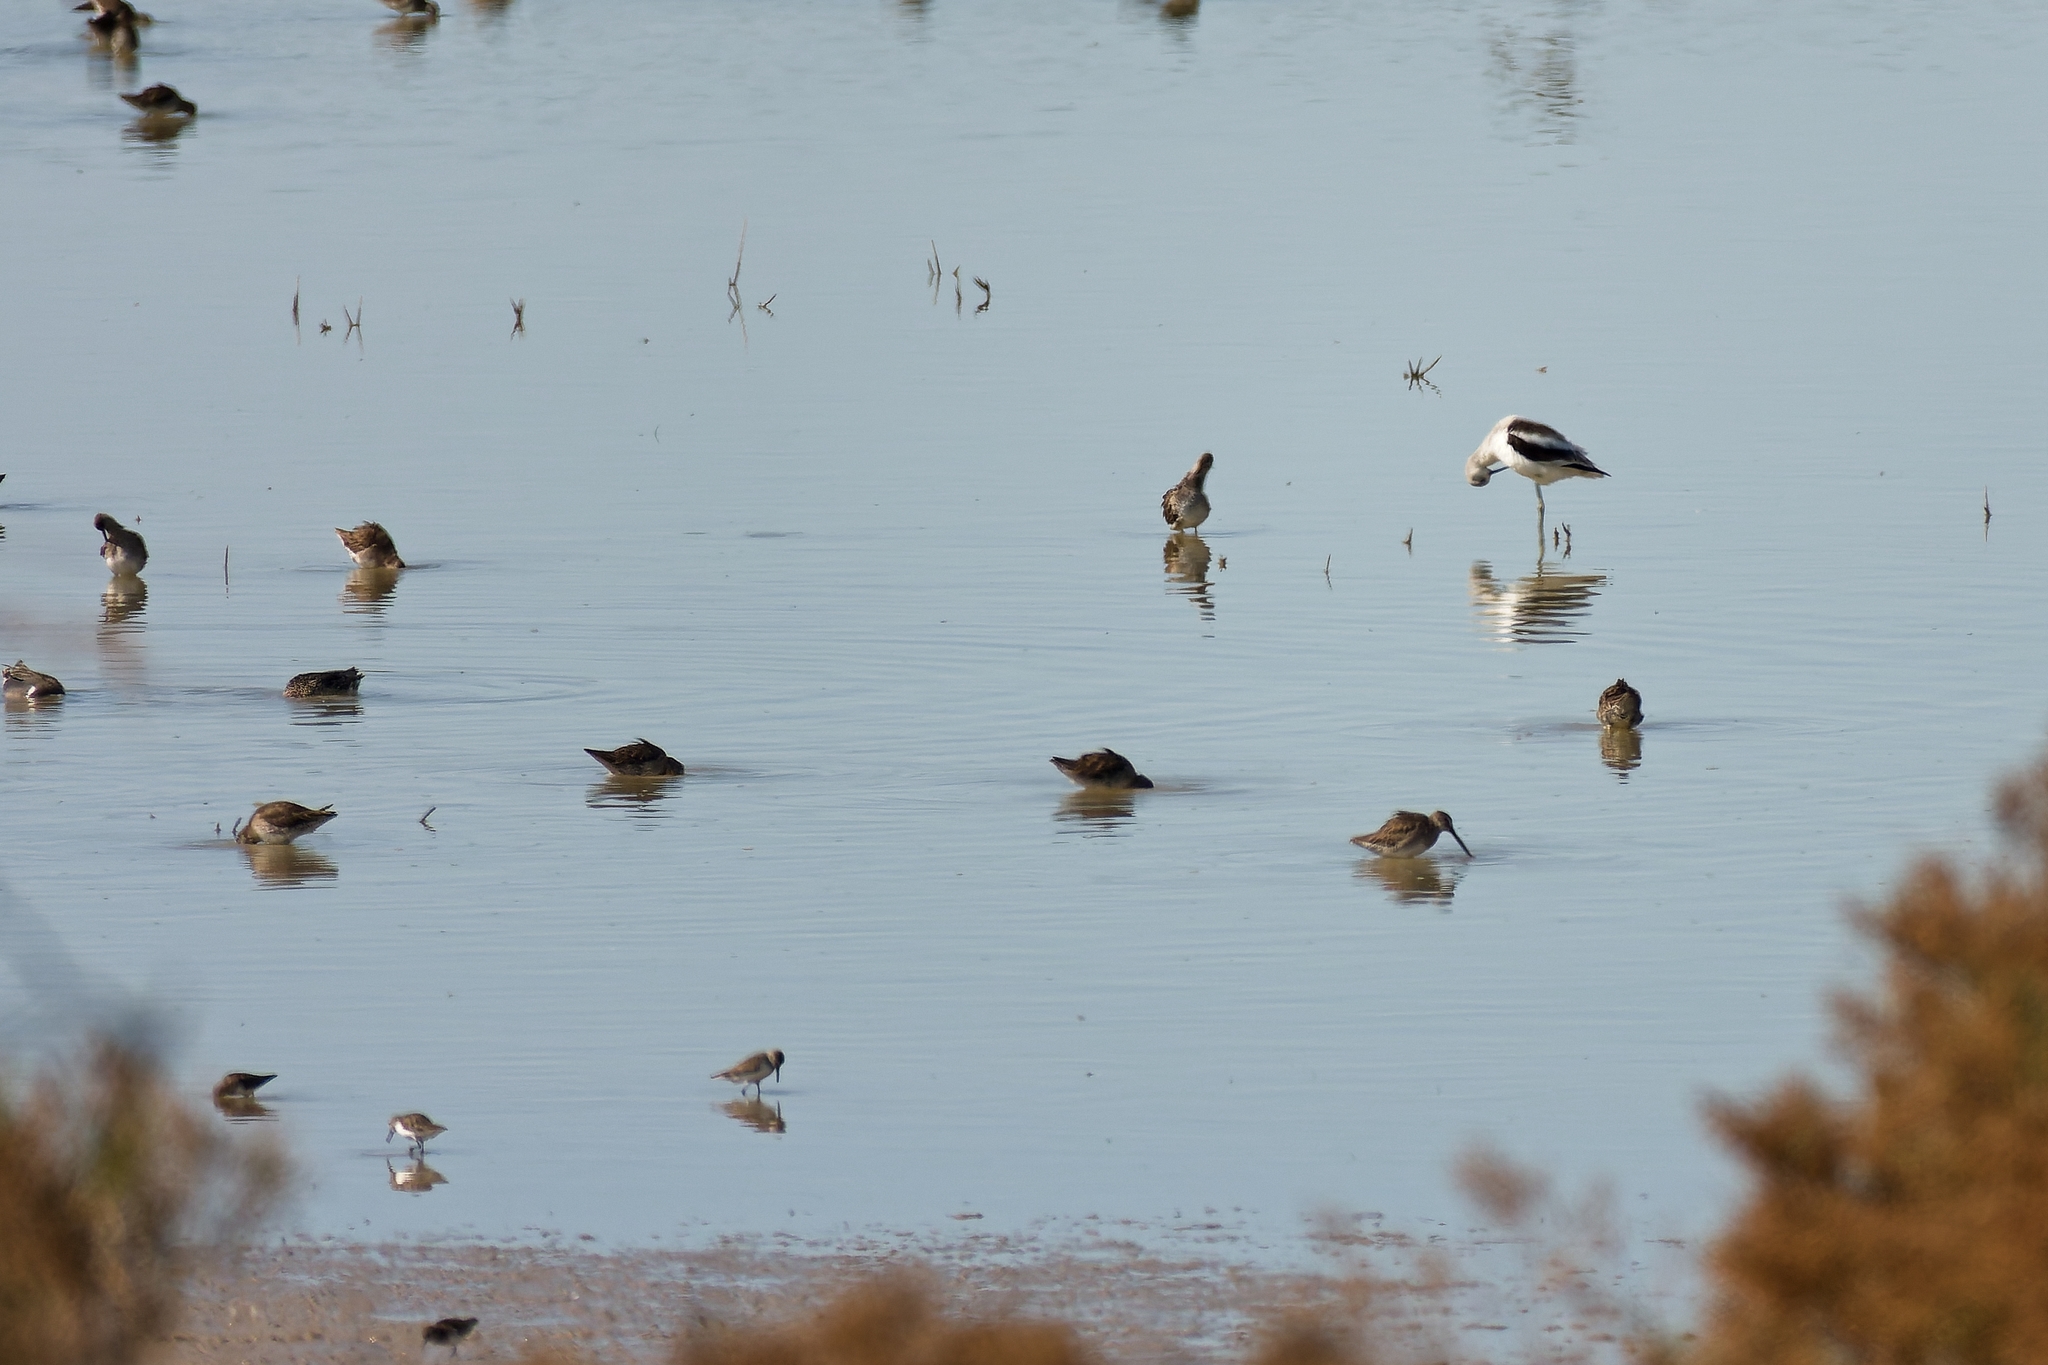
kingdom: Animalia
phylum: Chordata
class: Aves
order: Charadriiformes
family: Recurvirostridae
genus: Recurvirostra
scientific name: Recurvirostra americana
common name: American avocet
